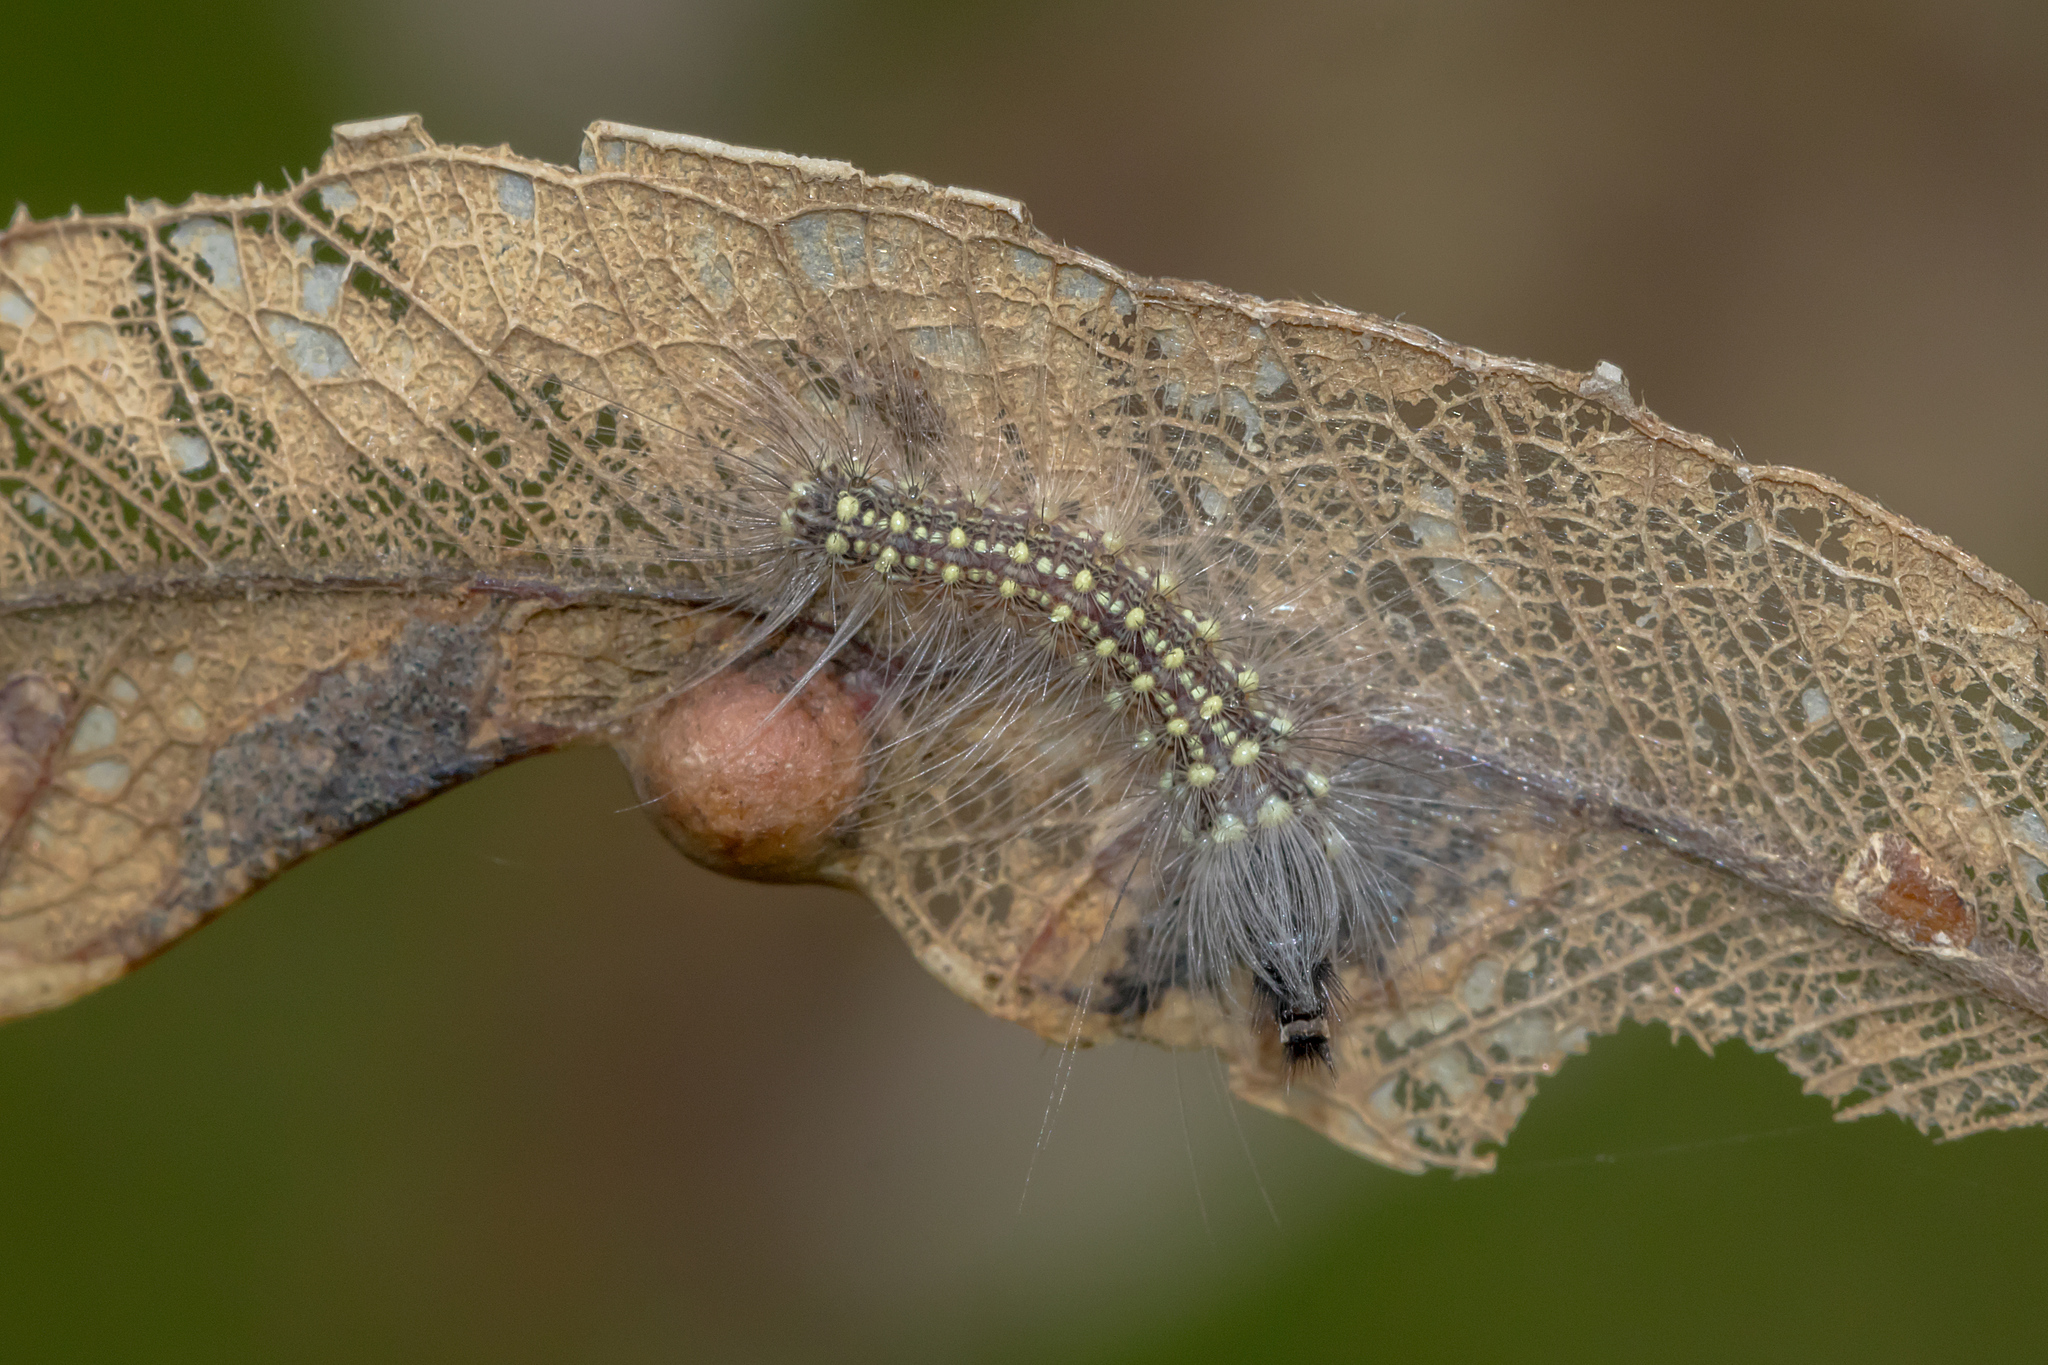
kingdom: Animalia
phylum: Arthropoda
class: Insecta
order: Lepidoptera
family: Nolidae
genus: Uraba
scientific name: Uraba lugens
